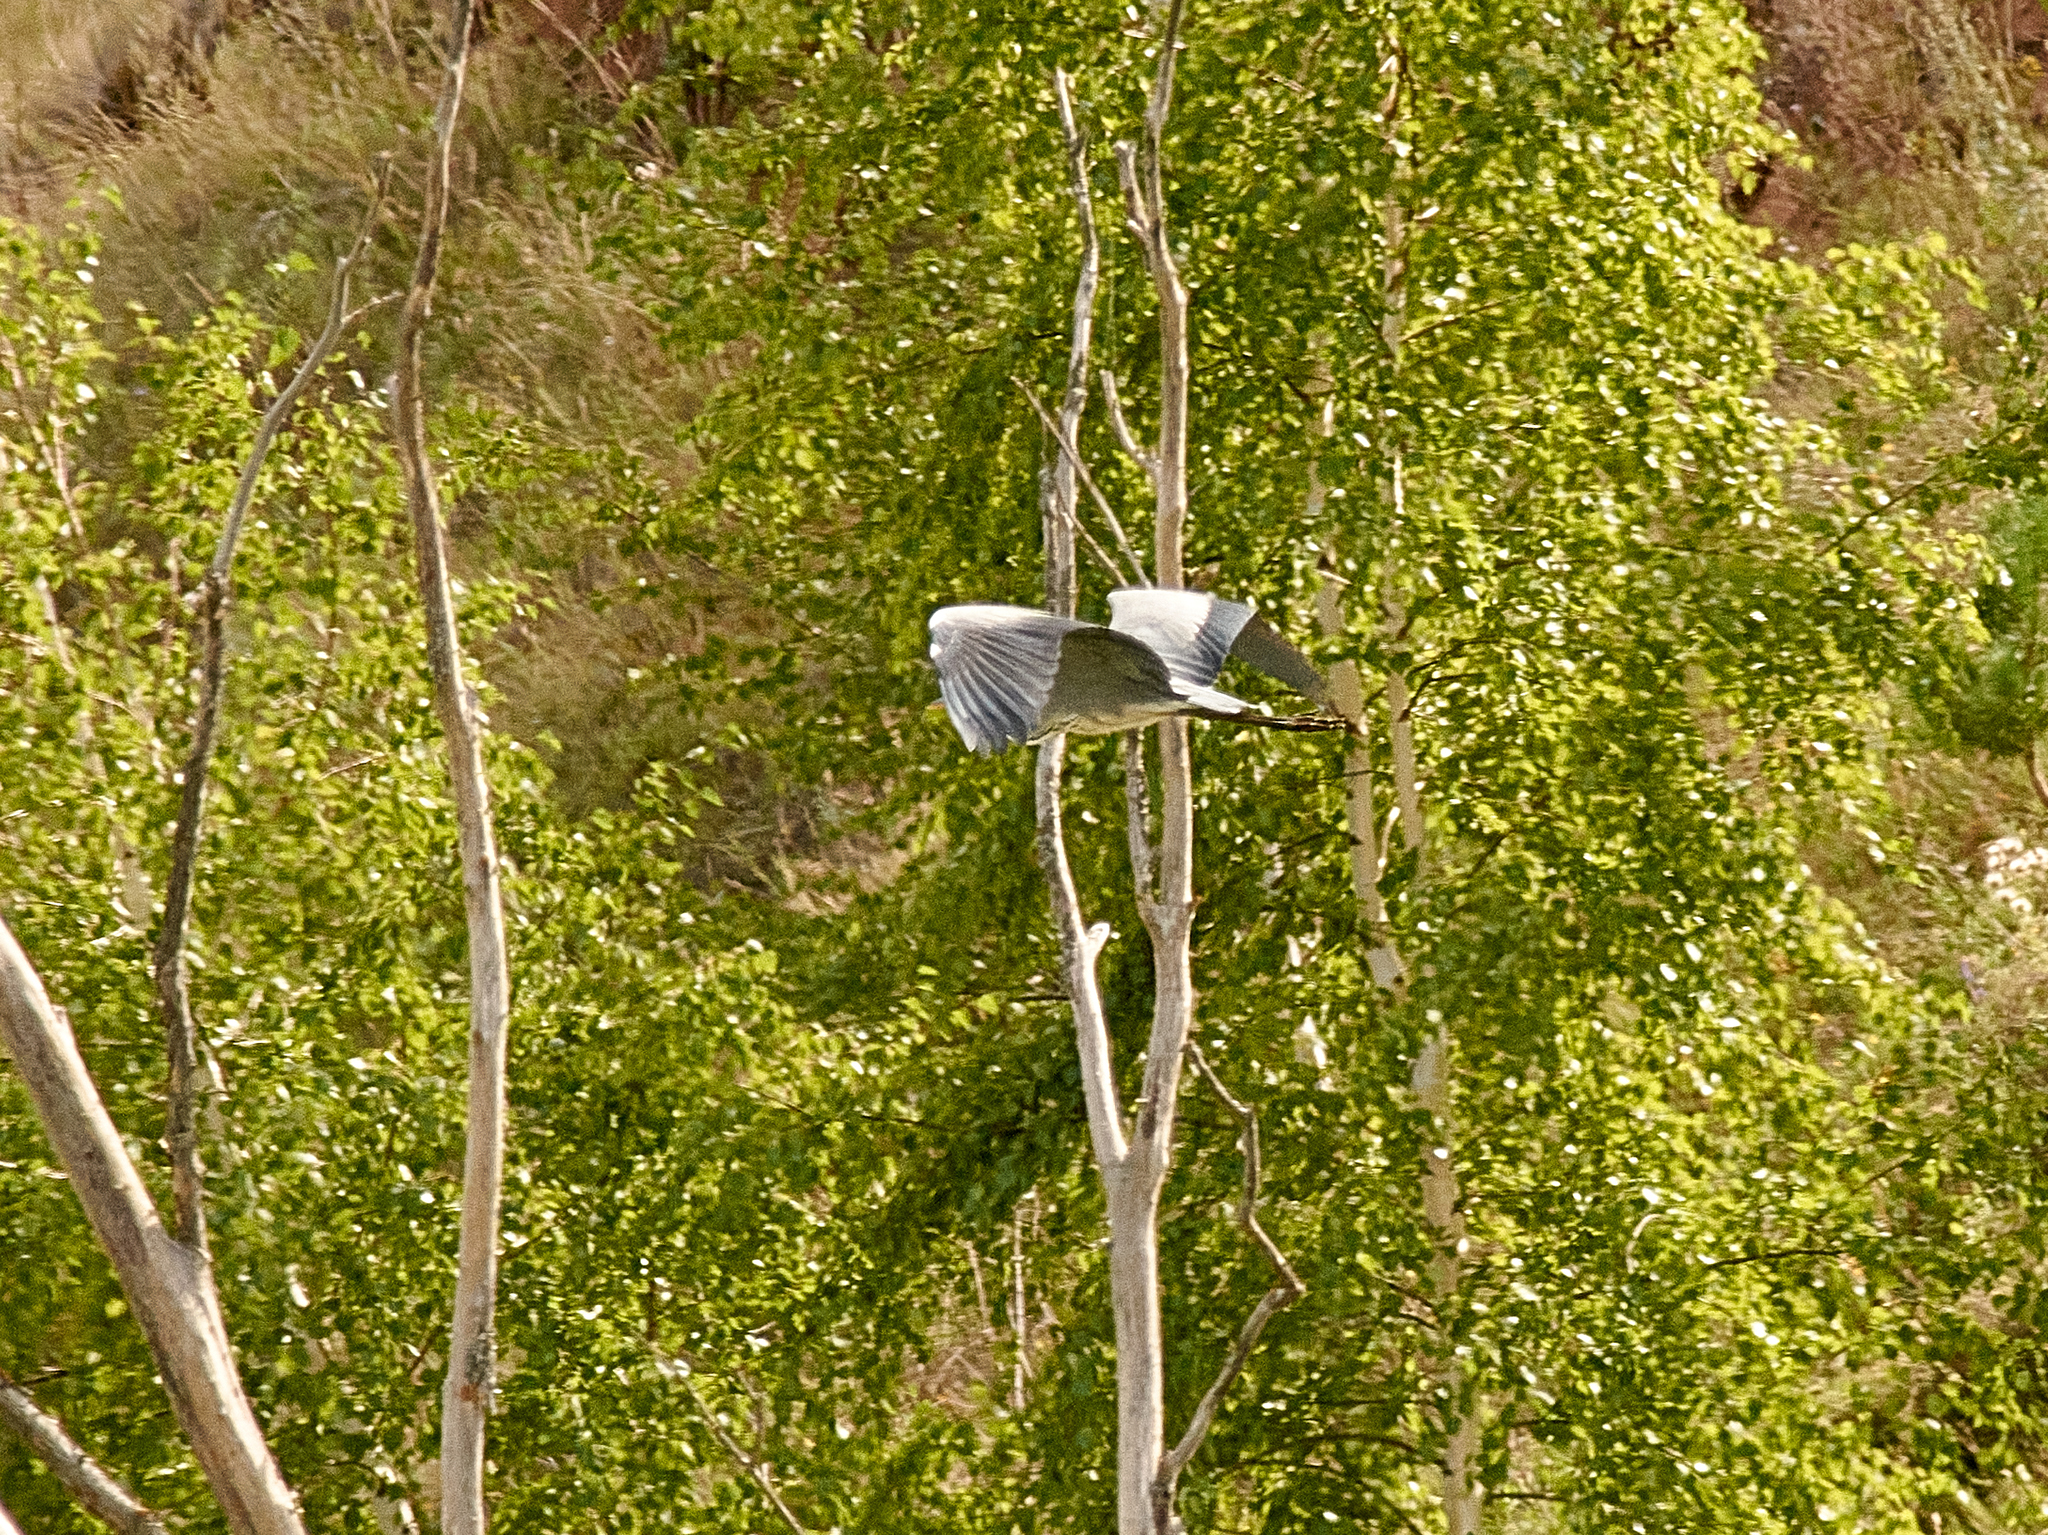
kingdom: Animalia
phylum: Chordata
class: Aves
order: Pelecaniformes
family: Ardeidae
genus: Ardea
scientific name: Ardea cinerea
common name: Grey heron
